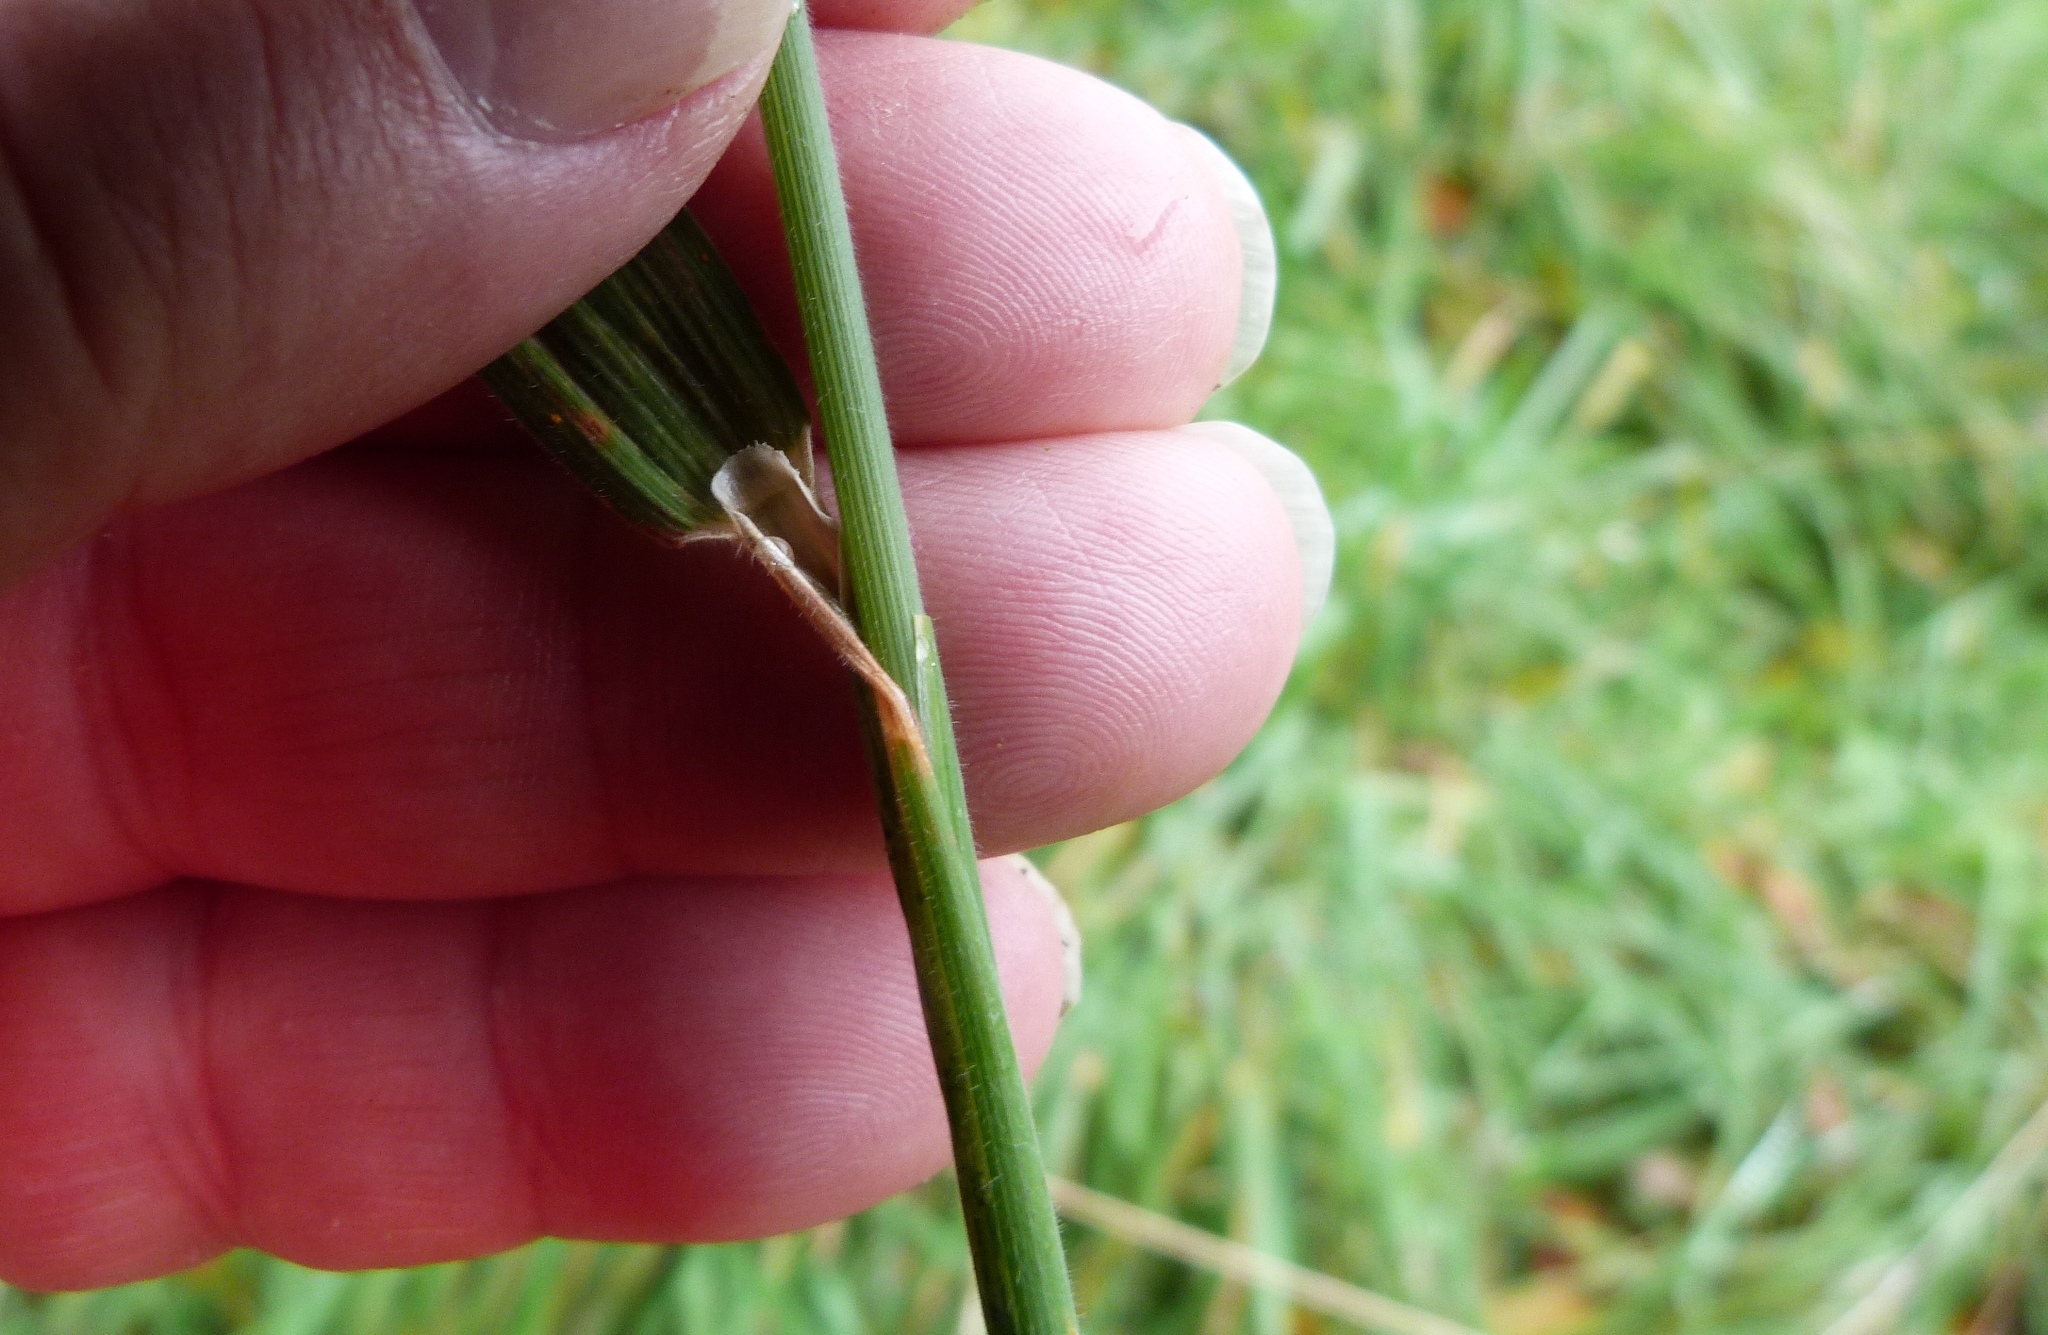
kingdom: Plantae
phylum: Tracheophyta
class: Liliopsida
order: Poales
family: Poaceae
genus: Holcus
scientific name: Holcus lanatus
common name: Yorkshire-fog
